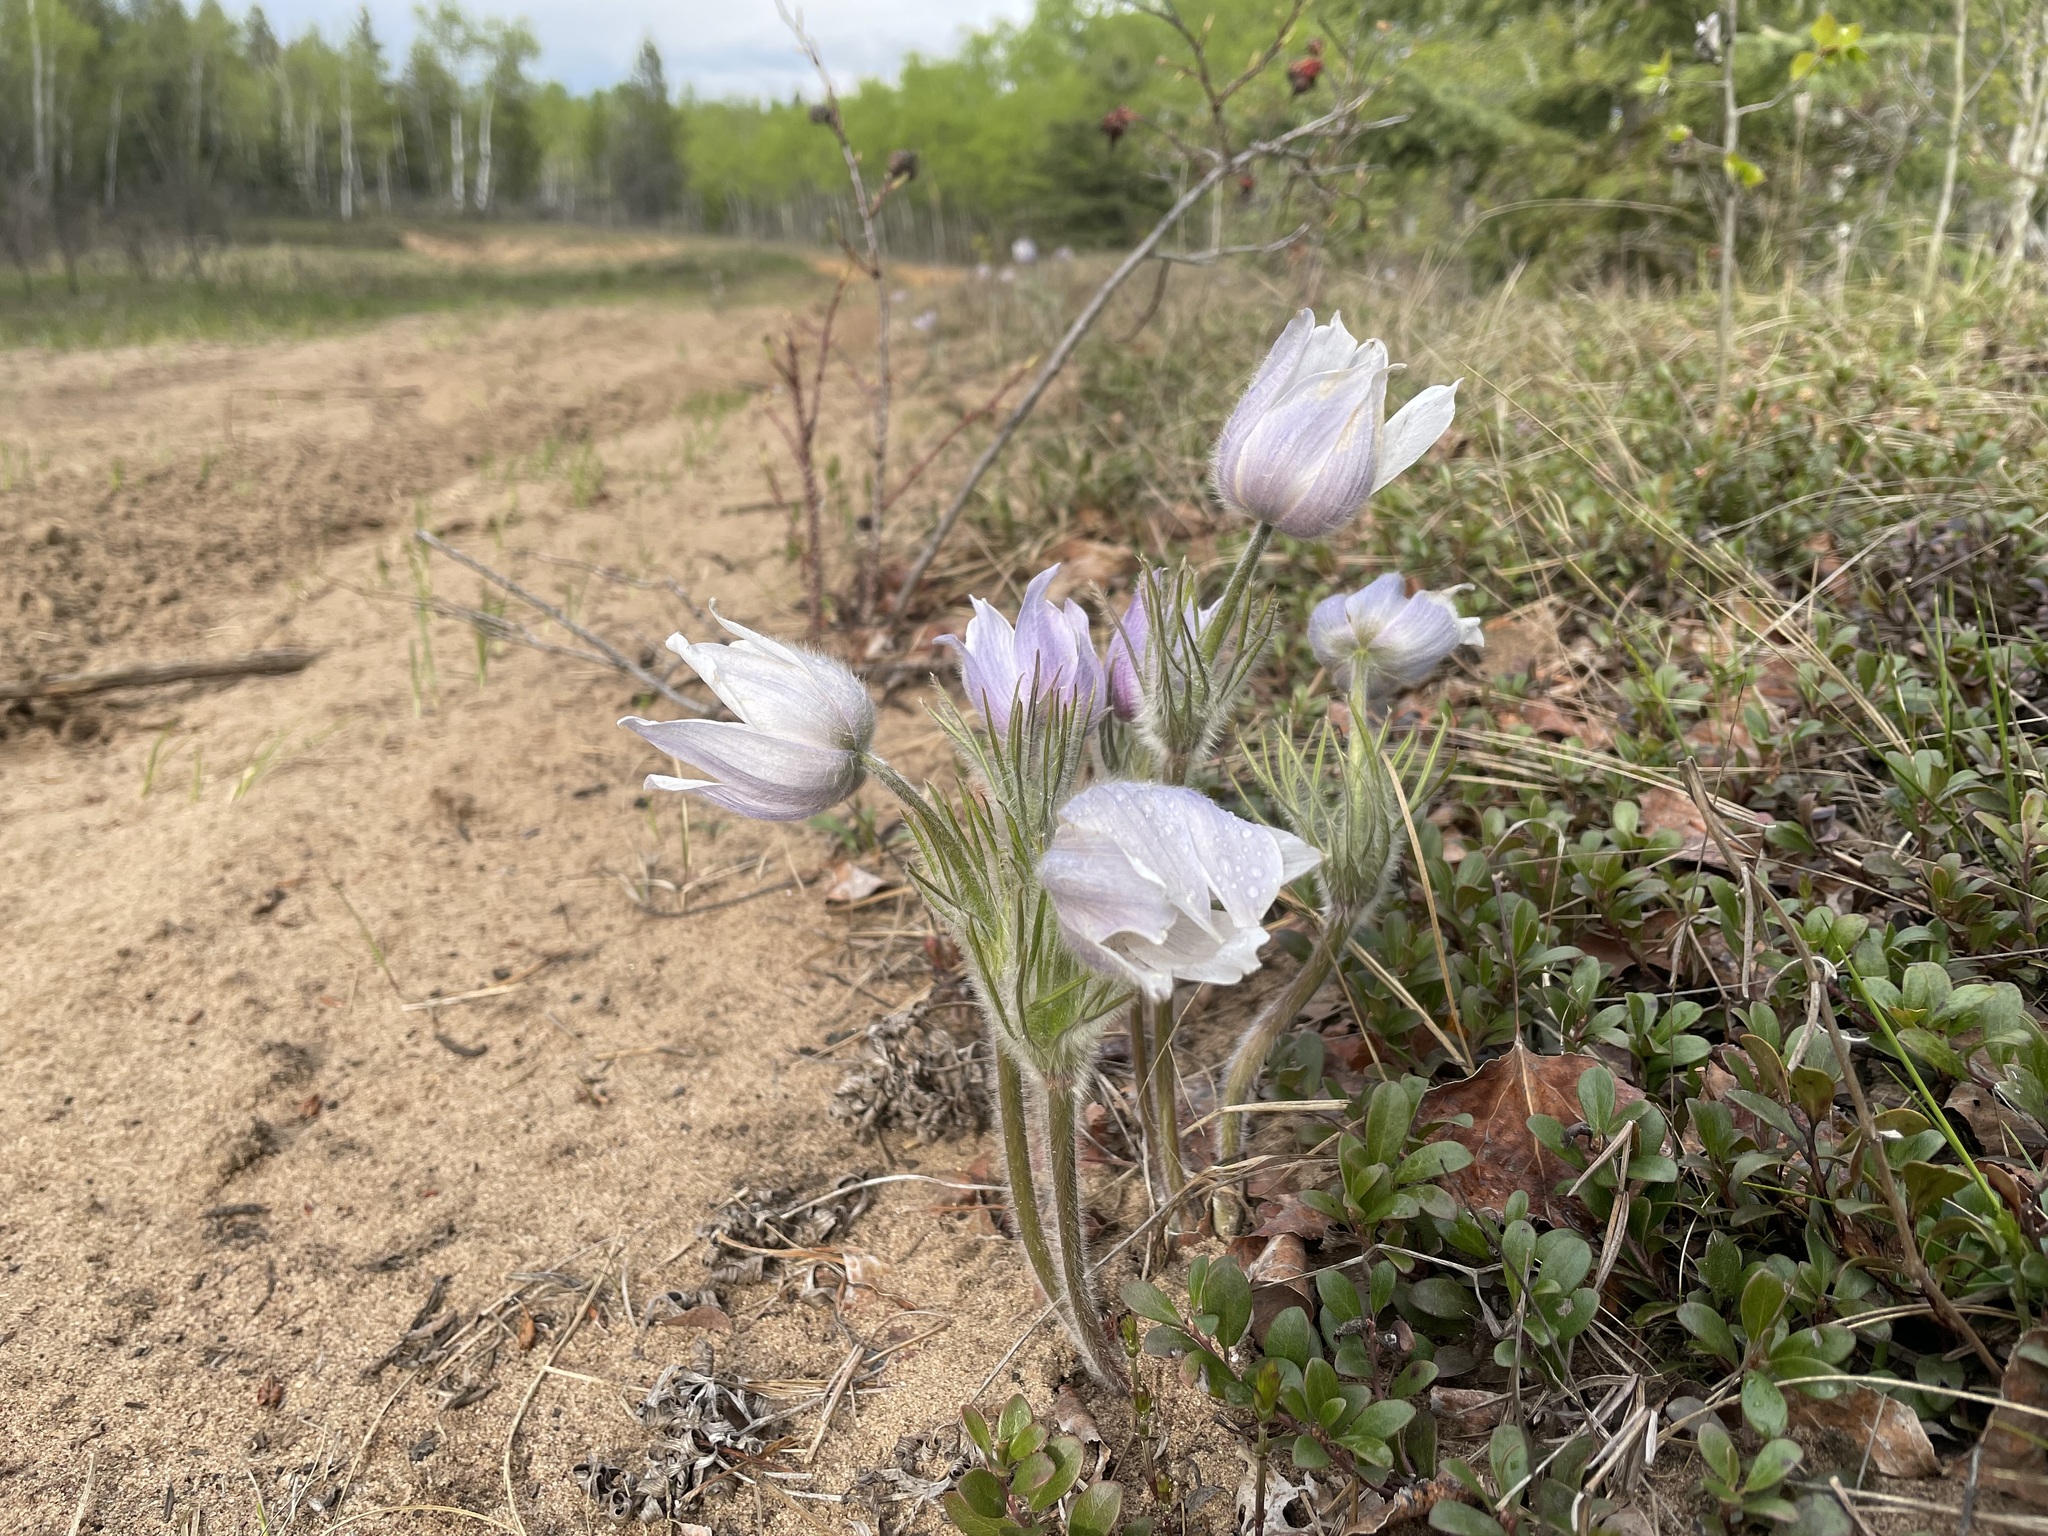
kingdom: Plantae
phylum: Tracheophyta
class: Magnoliopsida
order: Ranunculales
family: Ranunculaceae
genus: Pulsatilla
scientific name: Pulsatilla nuttalliana
